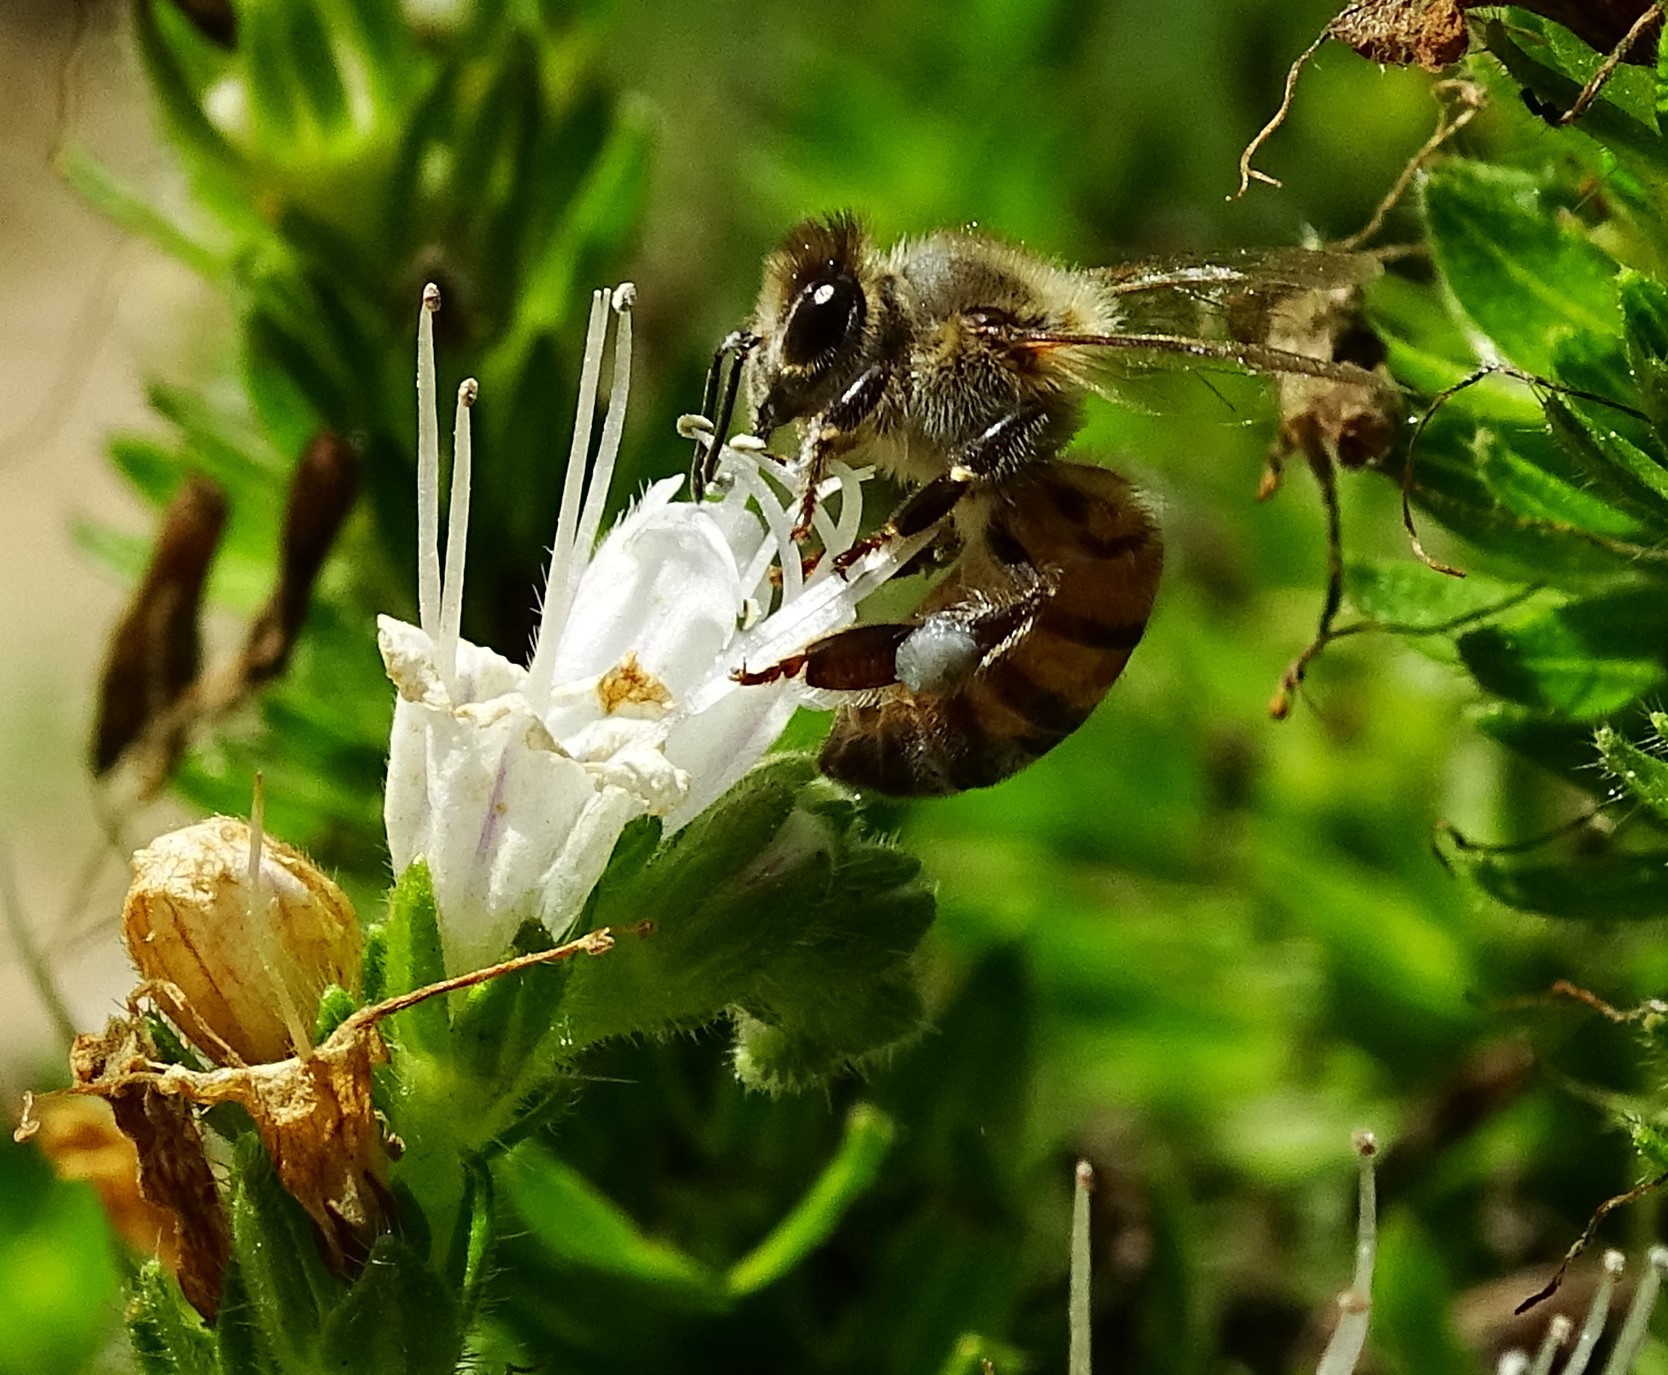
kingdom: Animalia
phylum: Arthropoda
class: Insecta
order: Hymenoptera
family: Apidae
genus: Apis
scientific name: Apis mellifera
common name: Honey bee
